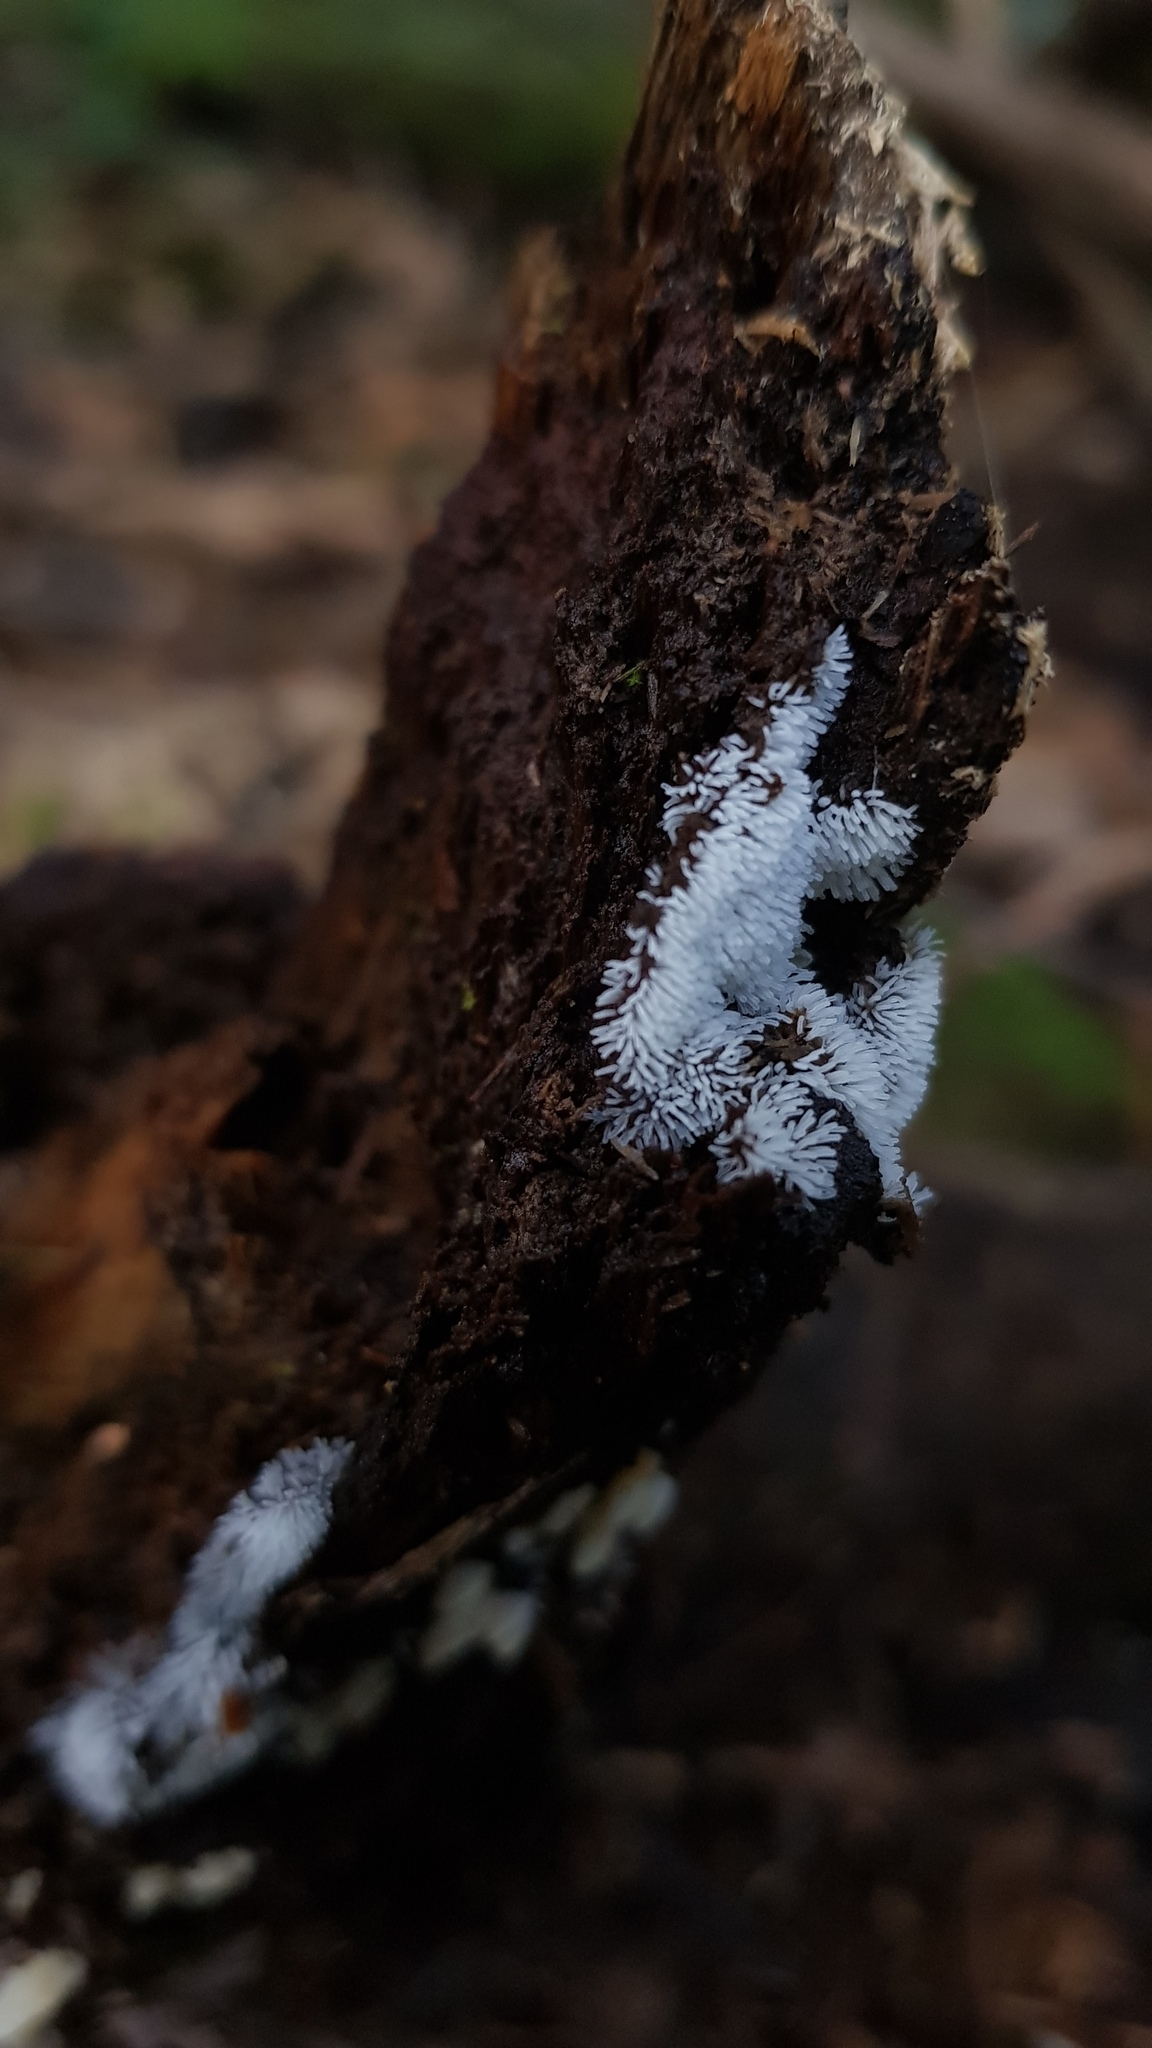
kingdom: Protozoa
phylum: Mycetozoa
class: Protosteliomycetes
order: Ceratiomyxales
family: Ceratiomyxaceae
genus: Ceratiomyxa
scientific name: Ceratiomyxa fruticulosa
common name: Honeycomb coral slime mold
